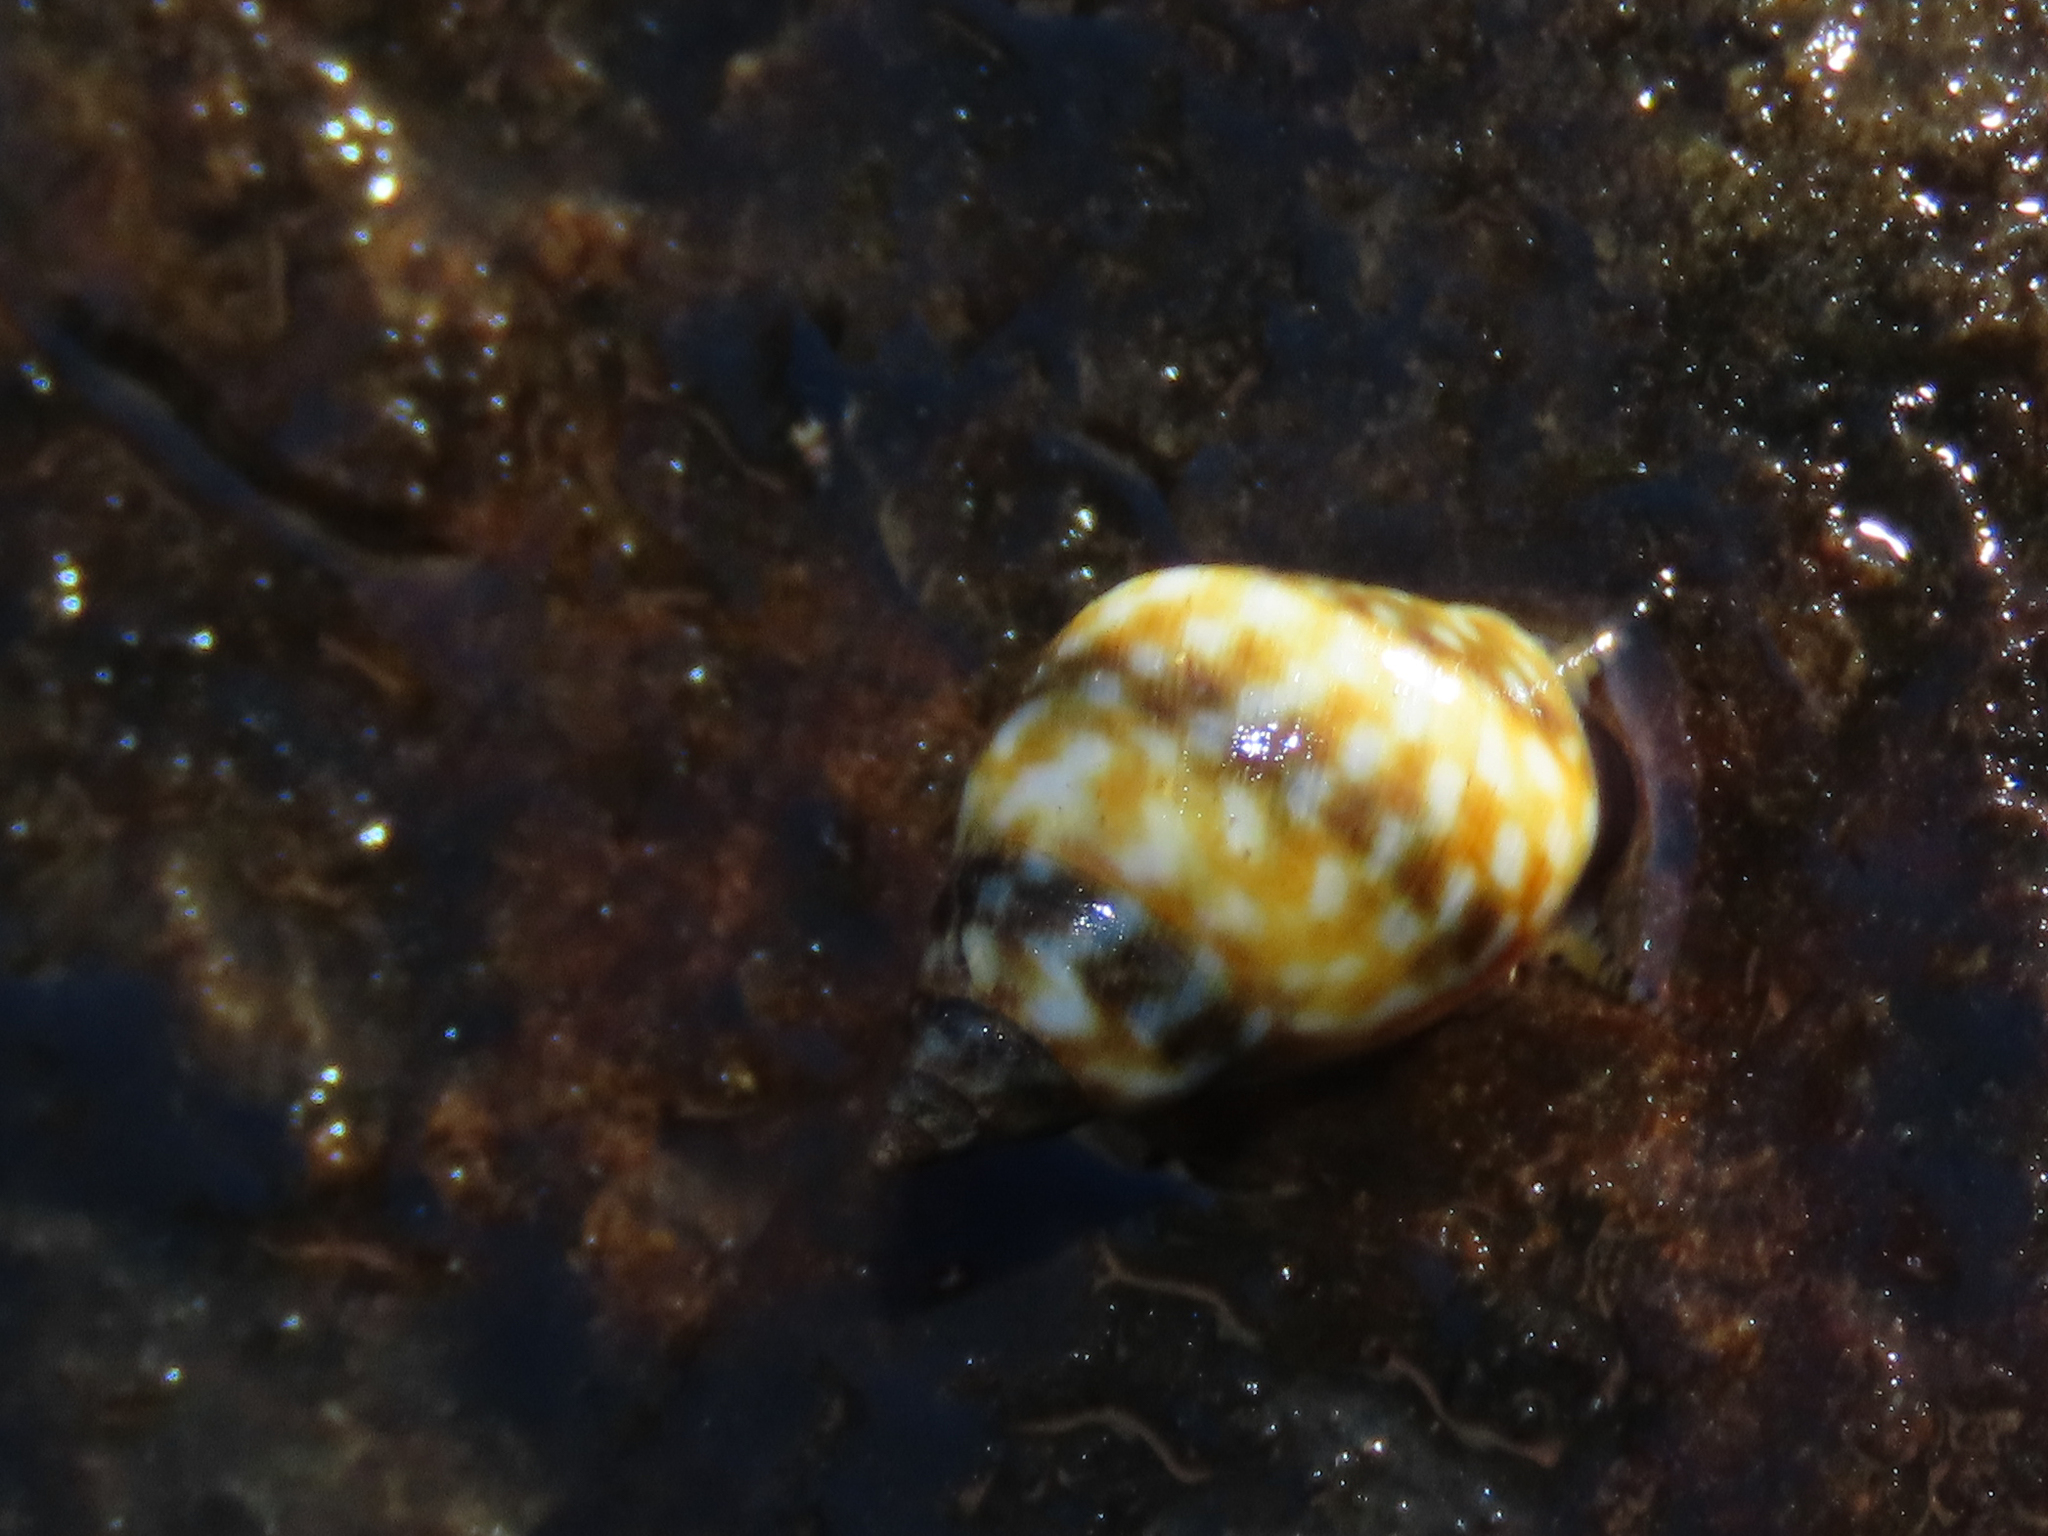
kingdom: Animalia
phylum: Mollusca
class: Gastropoda
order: Littorinimorpha
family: Littorinidae
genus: Littorina
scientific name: Littorina scutulata
